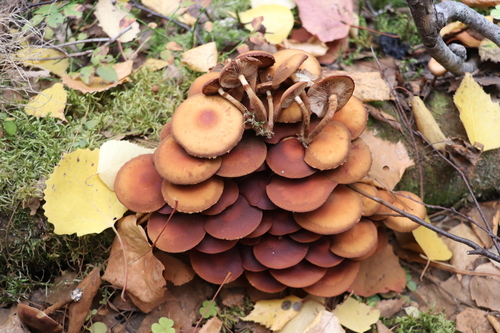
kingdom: Fungi
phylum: Basidiomycota
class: Agaricomycetes
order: Agaricales
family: Strophariaceae
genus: Kuehneromyces
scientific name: Kuehneromyces mutabilis
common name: Sheathed woodtuft
